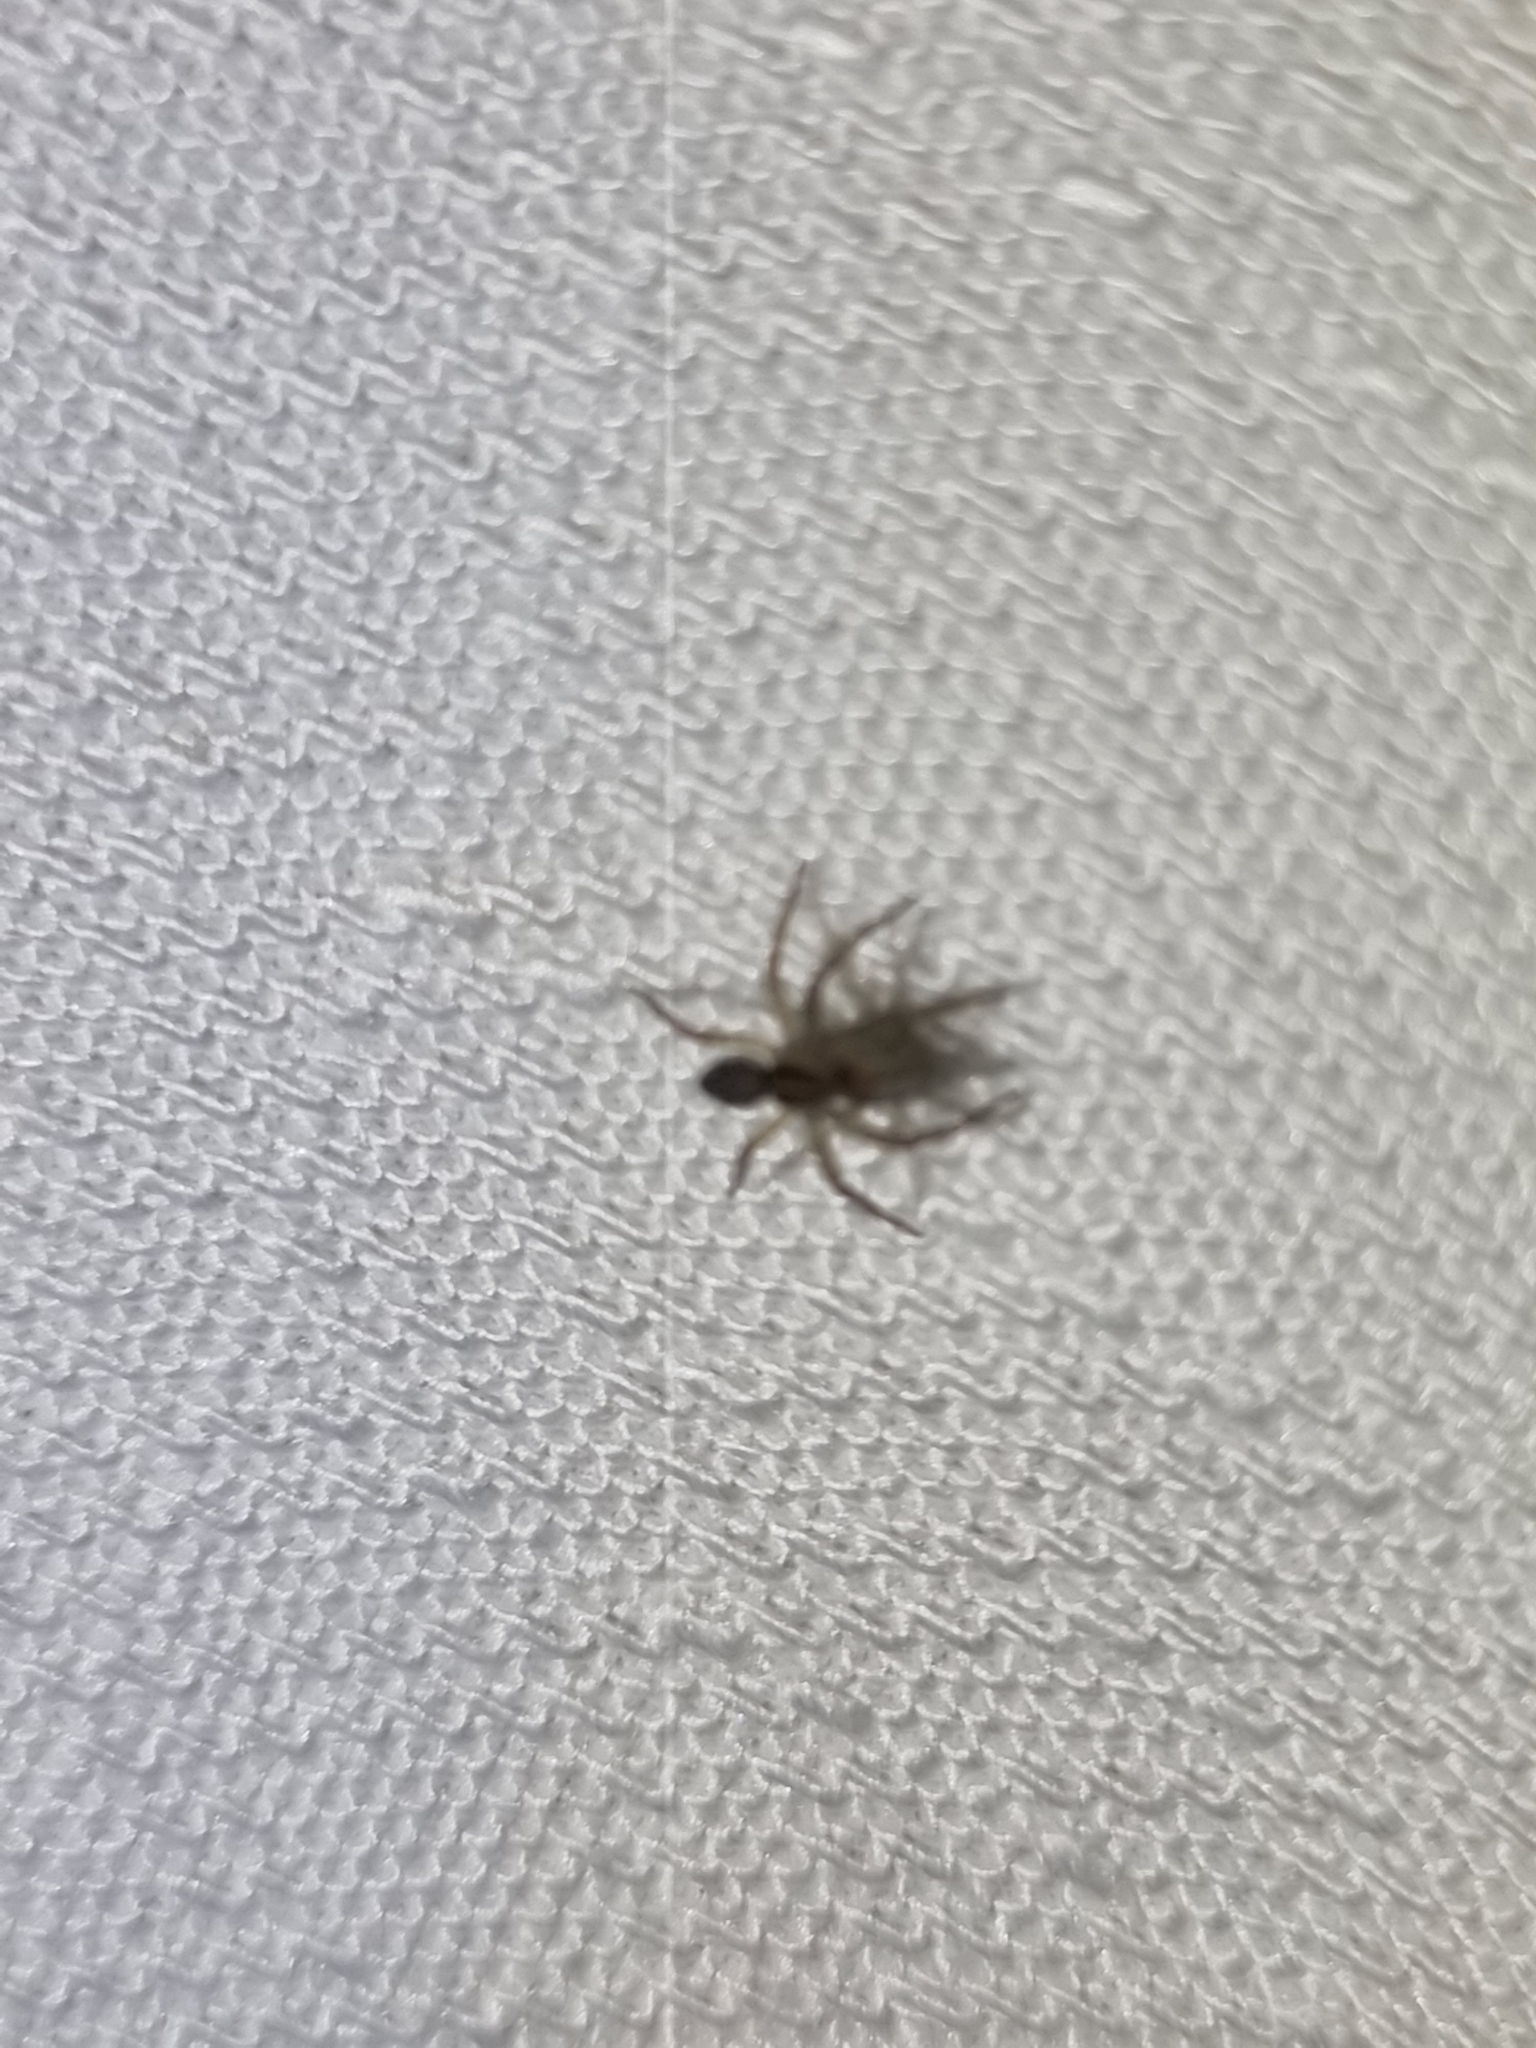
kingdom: Animalia
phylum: Arthropoda
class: Arachnida
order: Araneae
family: Pisauridae
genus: Dolomedes
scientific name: Dolomedes facetus
